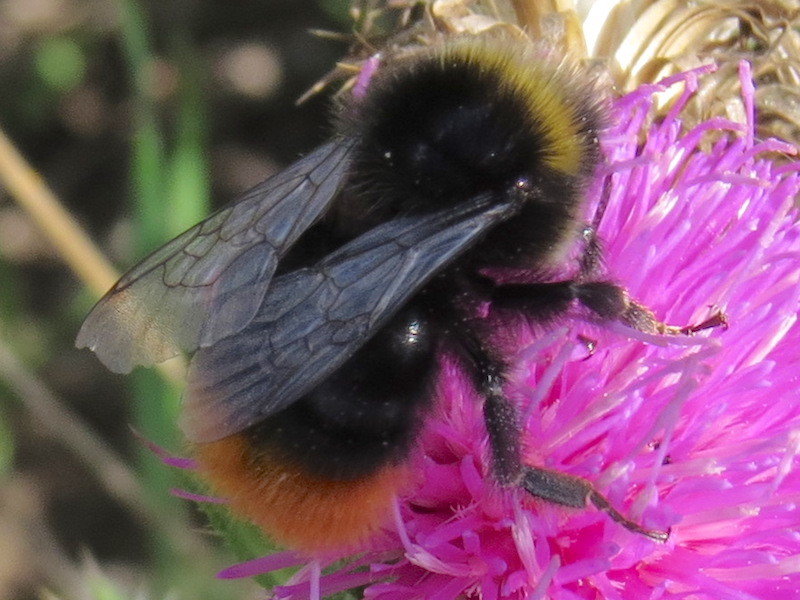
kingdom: Animalia
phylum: Arthropoda
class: Insecta
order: Hymenoptera
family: Apidae
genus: Bombus
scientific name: Bombus lapidarius
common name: Large red-tailed humble-bee
